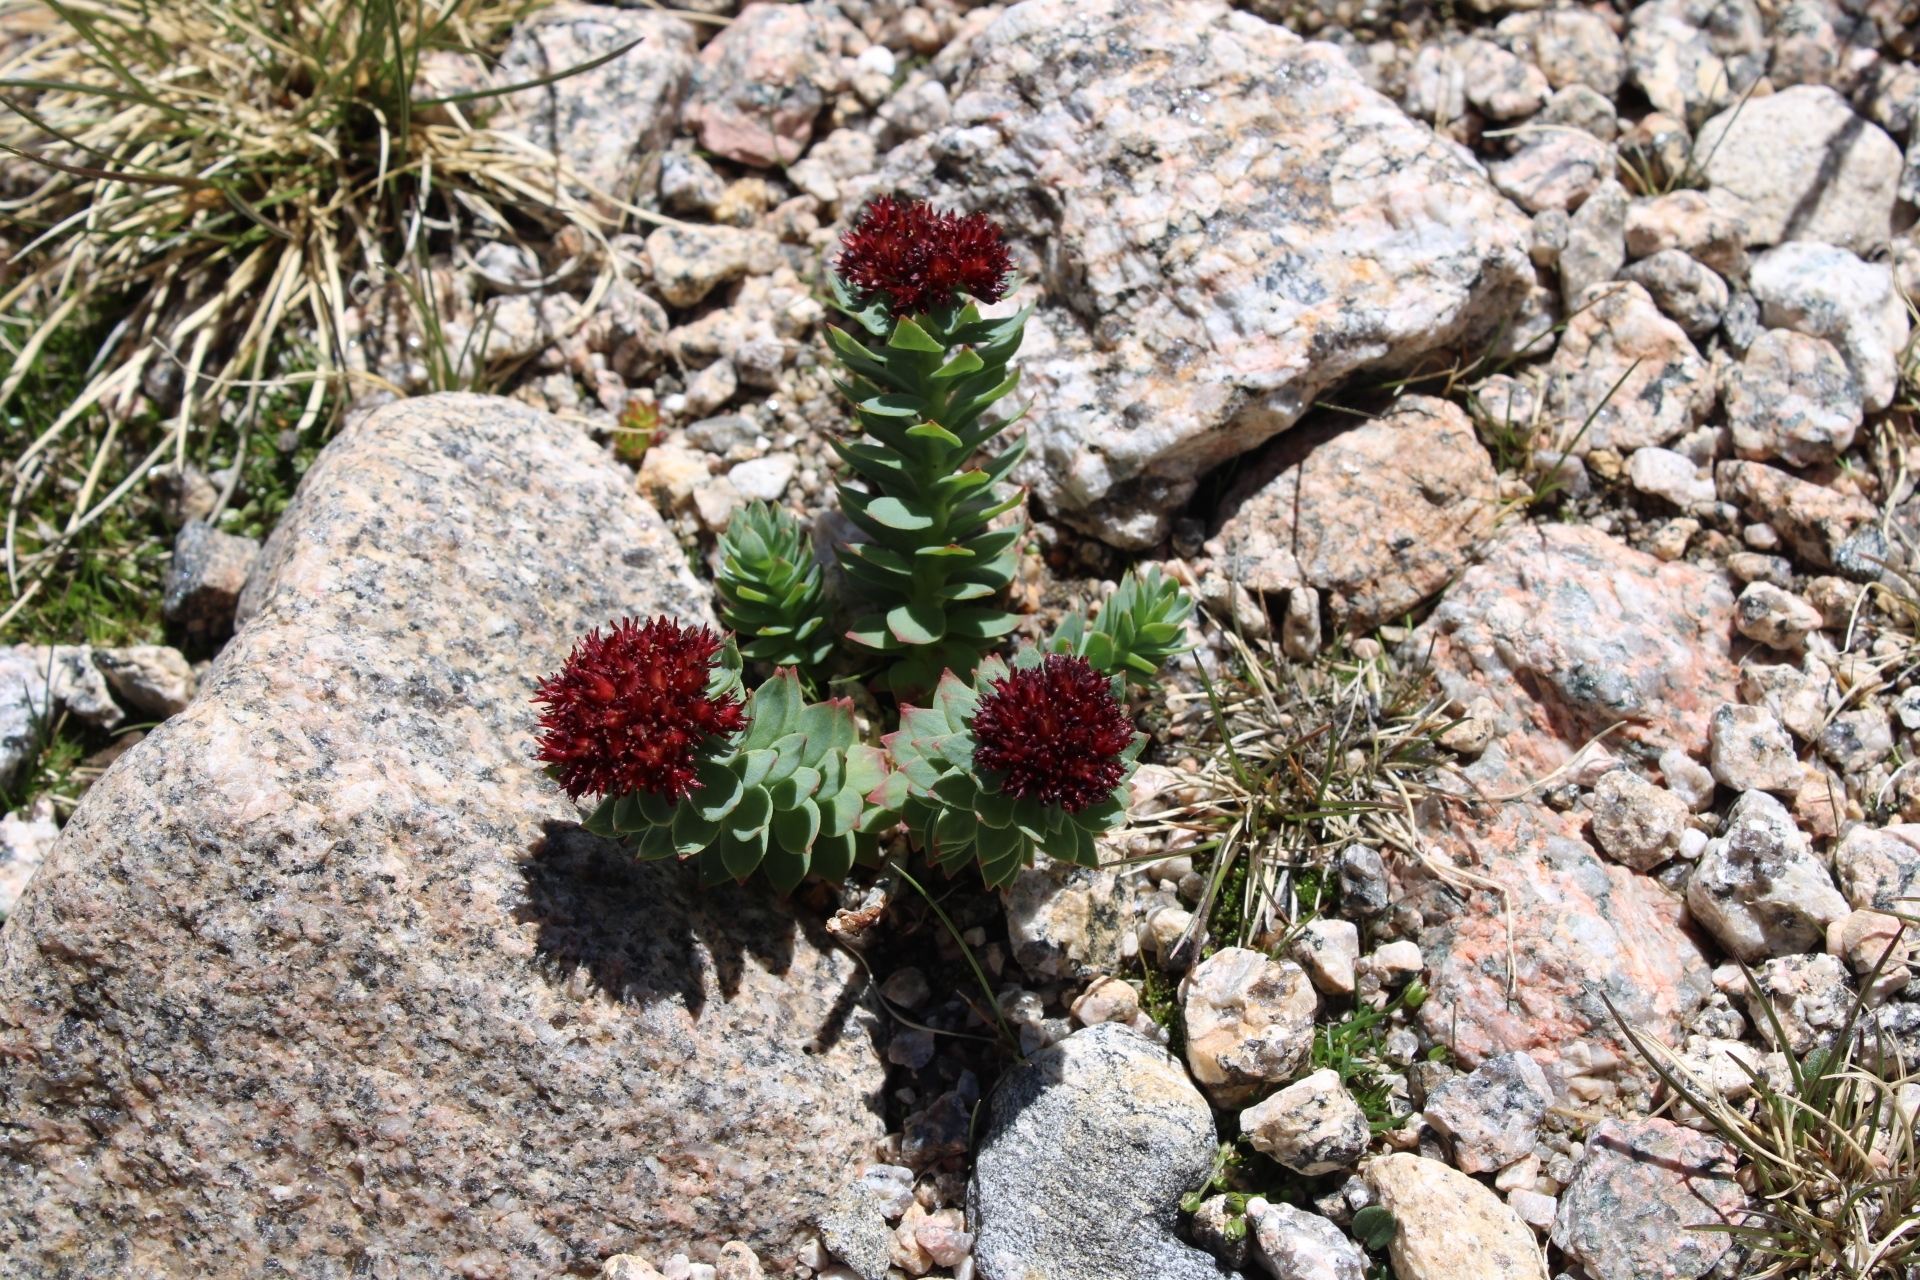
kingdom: Plantae
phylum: Tracheophyta
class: Magnoliopsida
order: Saxifragales
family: Crassulaceae
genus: Rhodiola
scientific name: Rhodiola integrifolia
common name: Western roseroot
